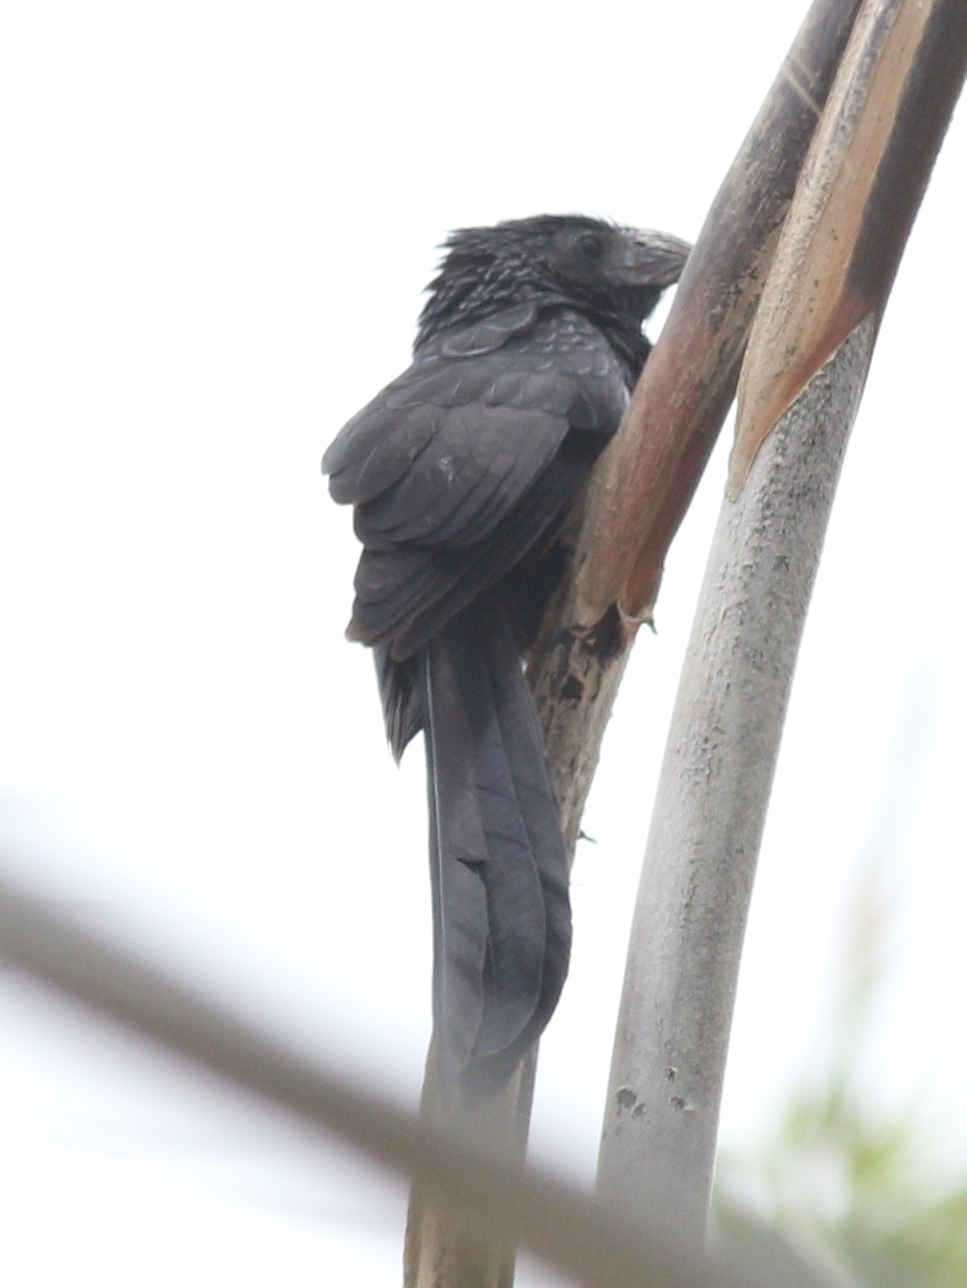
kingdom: Animalia
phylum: Chordata
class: Aves
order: Cuculiformes
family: Cuculidae
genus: Crotophaga
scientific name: Crotophaga sulcirostris
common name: Groove-billed ani
